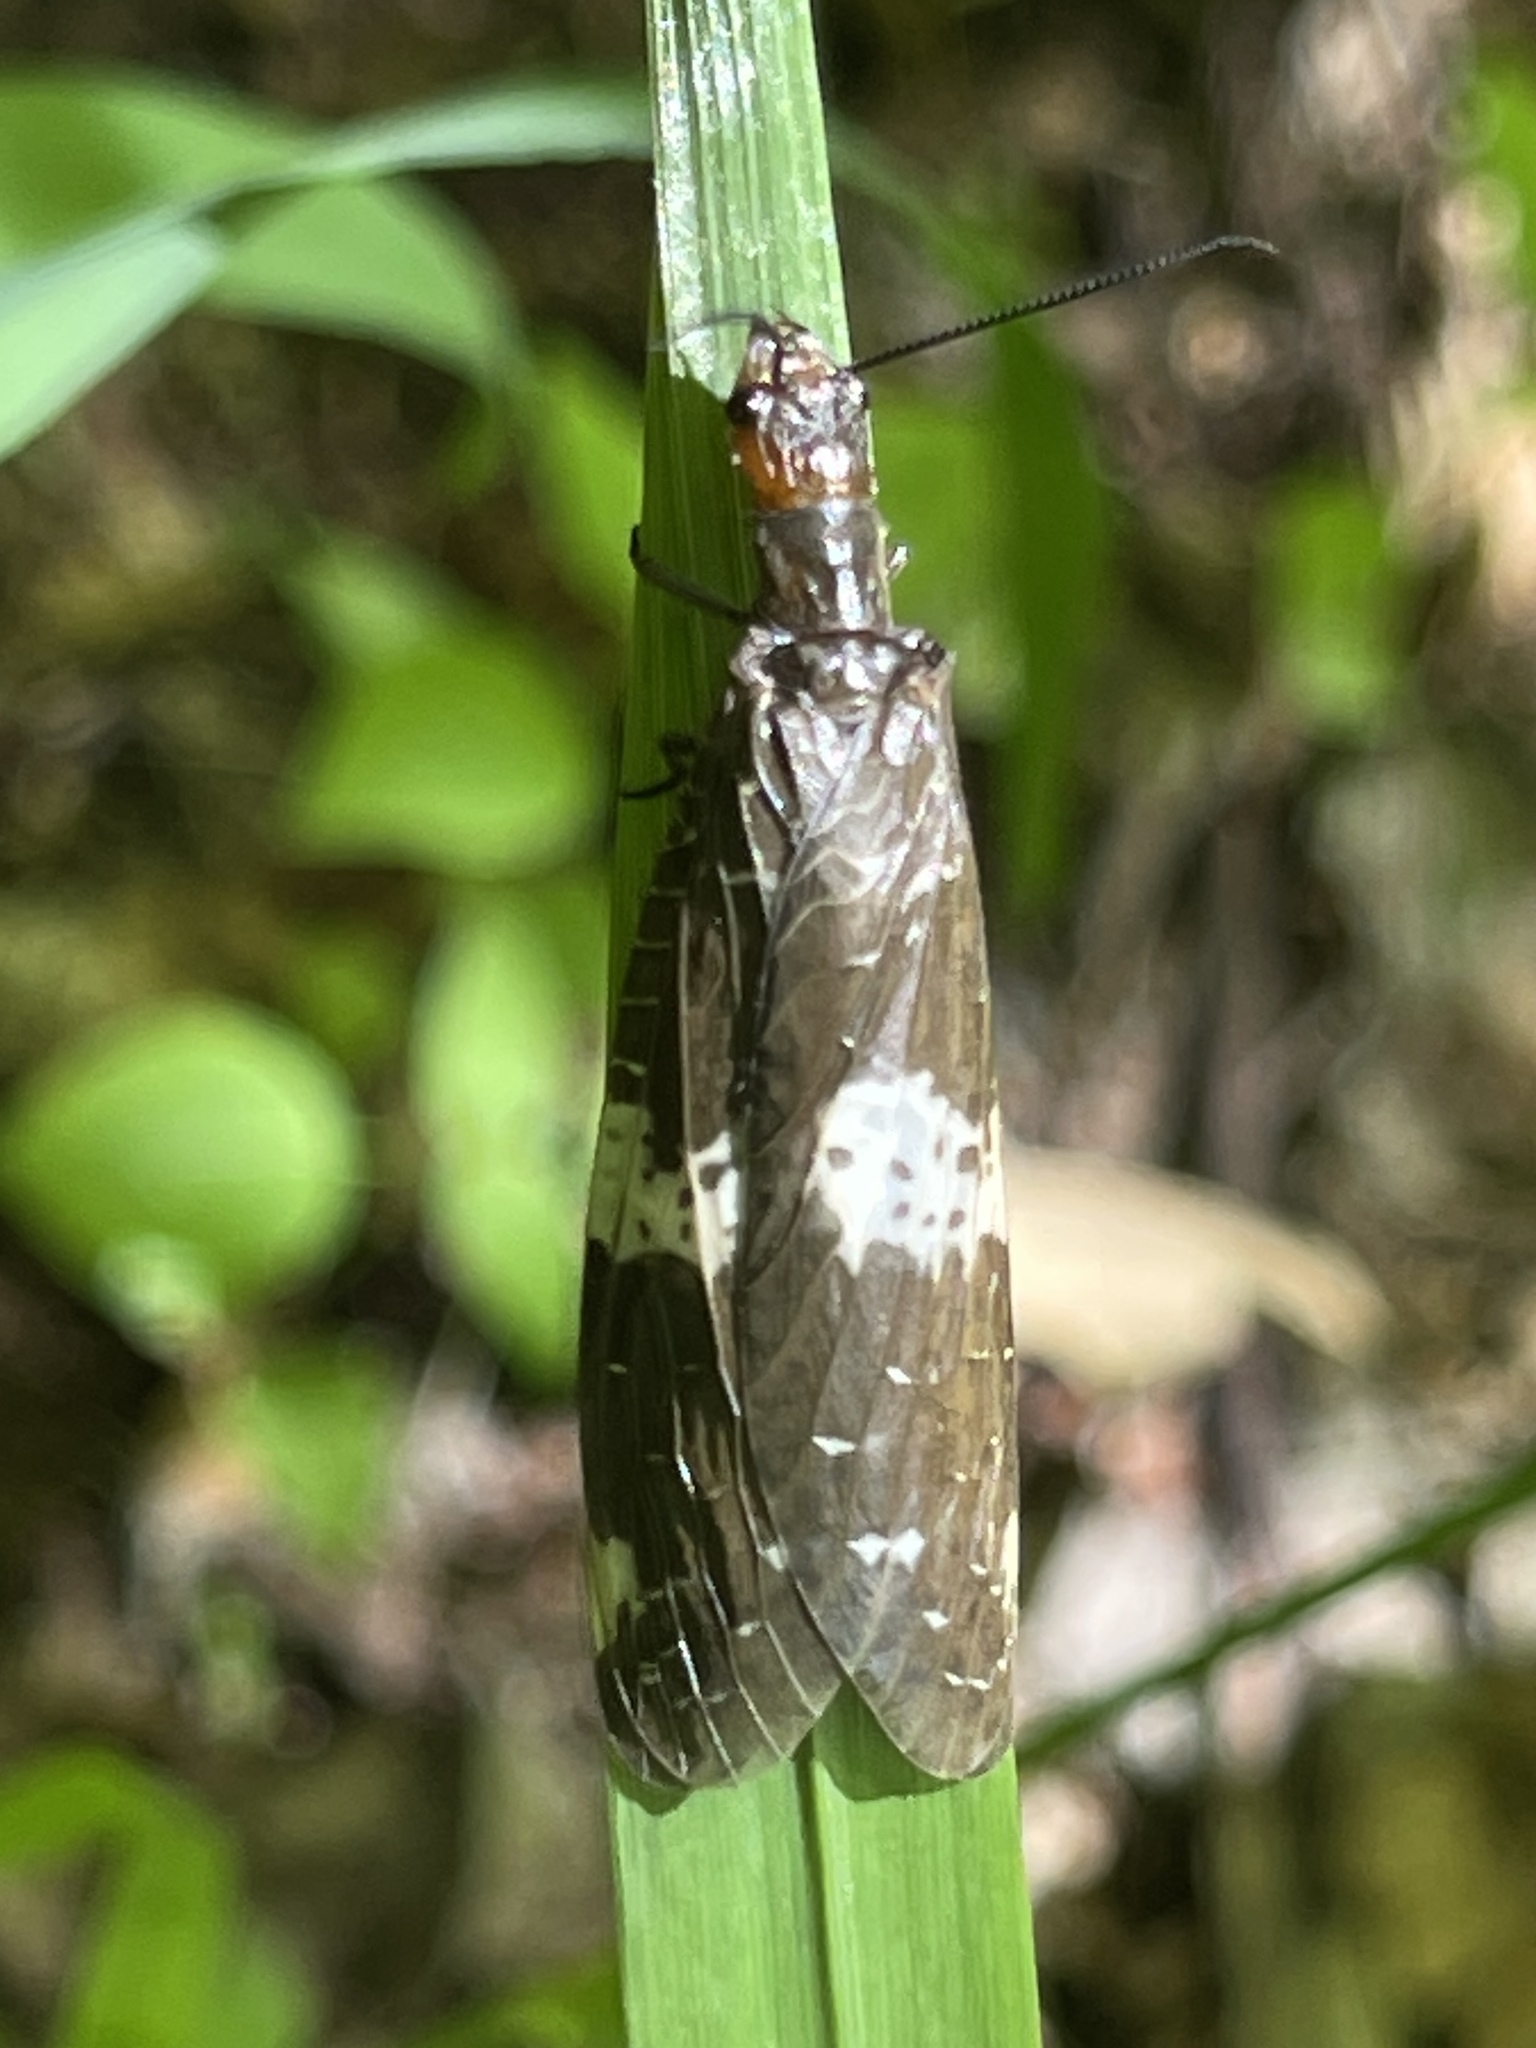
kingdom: Animalia
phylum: Arthropoda
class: Insecta
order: Megaloptera
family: Corydalidae
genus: Nigronia
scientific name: Nigronia fasciata
